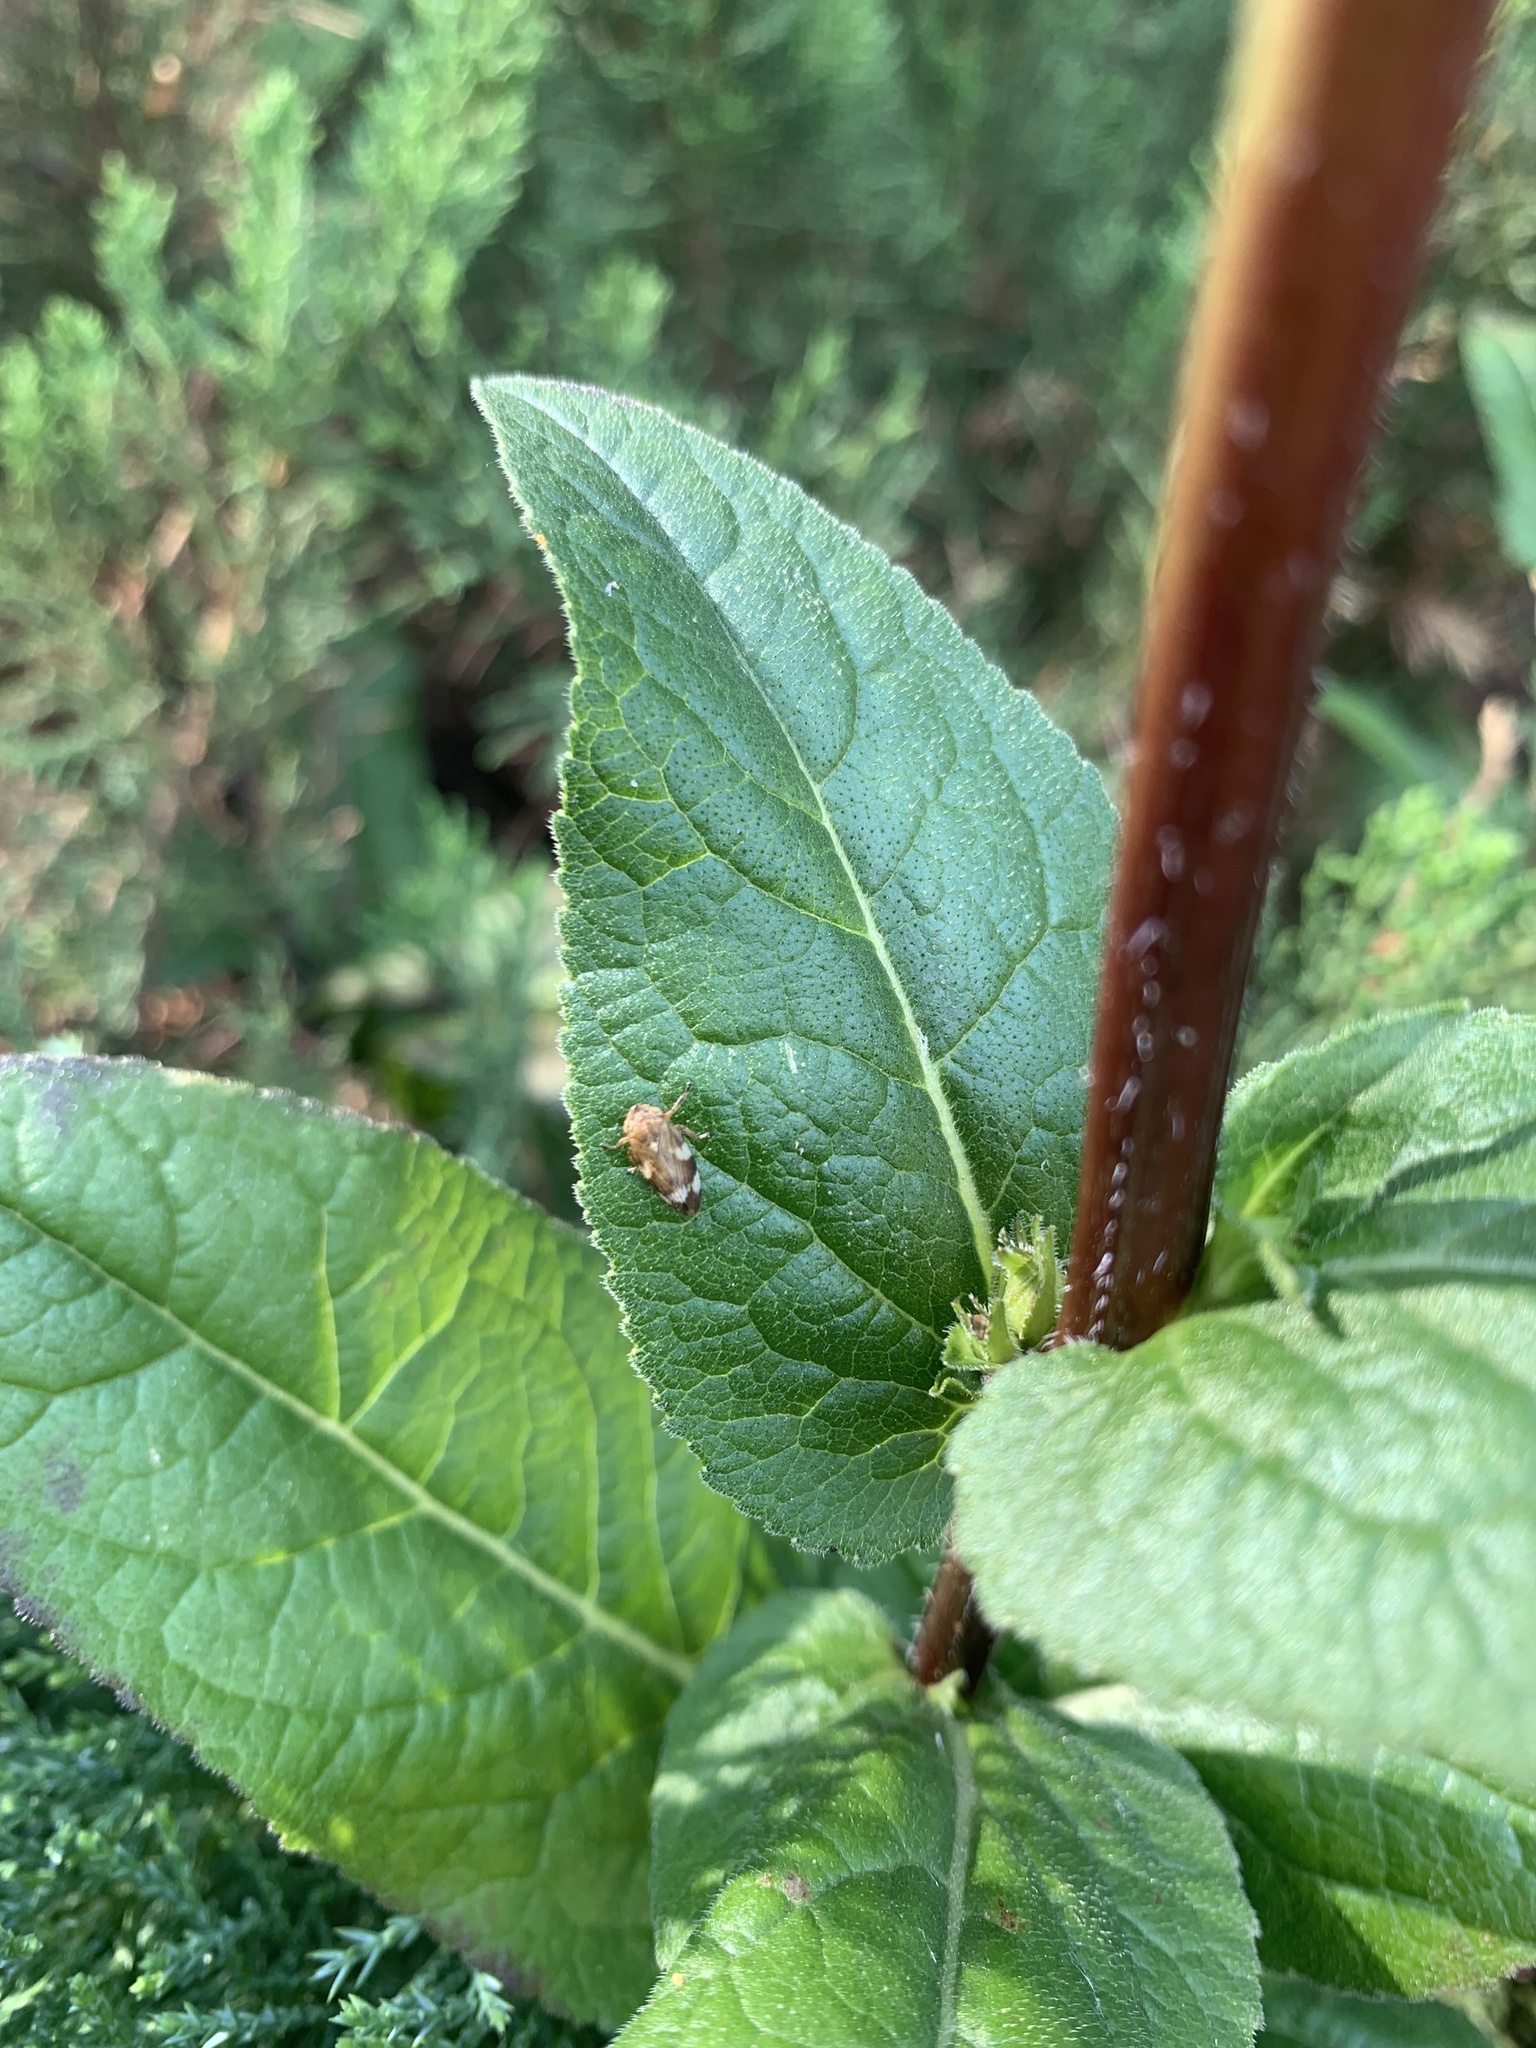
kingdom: Animalia
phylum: Arthropoda
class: Insecta
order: Hemiptera
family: Aphrophoridae
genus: Philaenus
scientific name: Philaenus spumarius
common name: Meadow spittlebug
